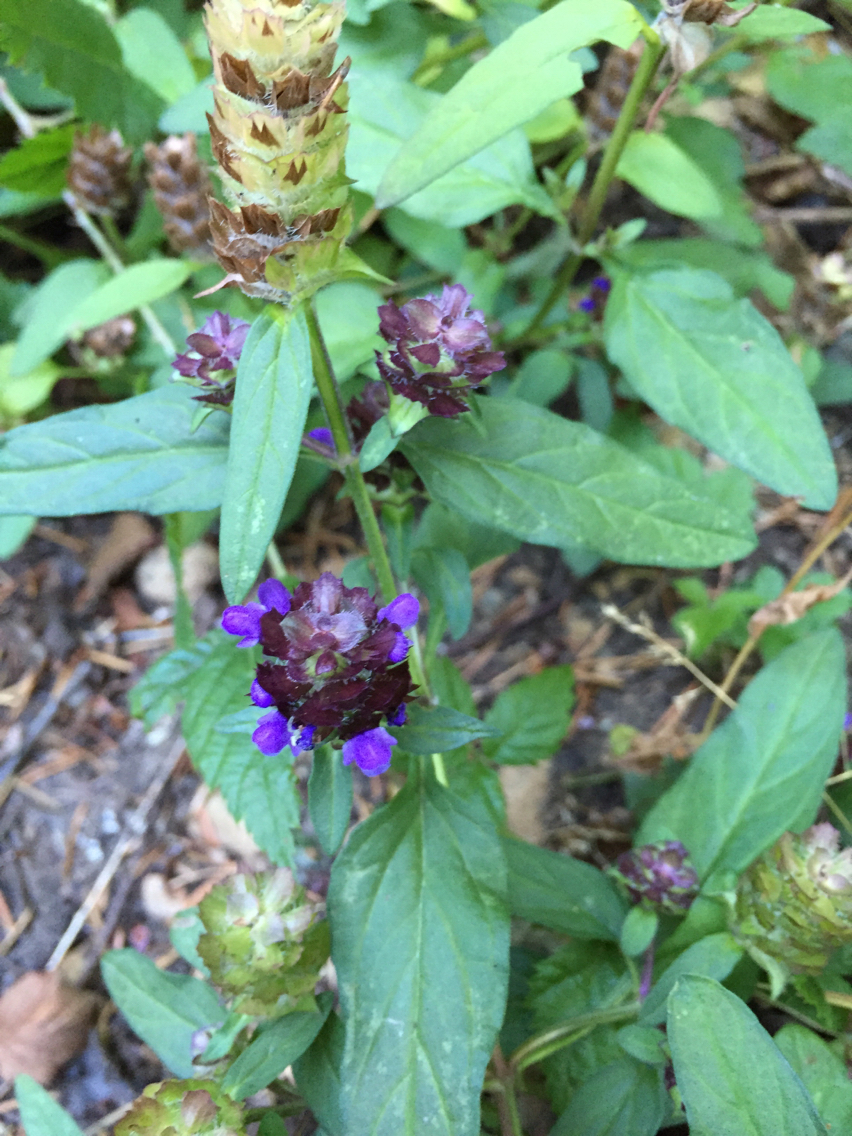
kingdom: Plantae
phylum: Tracheophyta
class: Magnoliopsida
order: Lamiales
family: Lamiaceae
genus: Prunella
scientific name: Prunella vulgaris
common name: Heal-all
